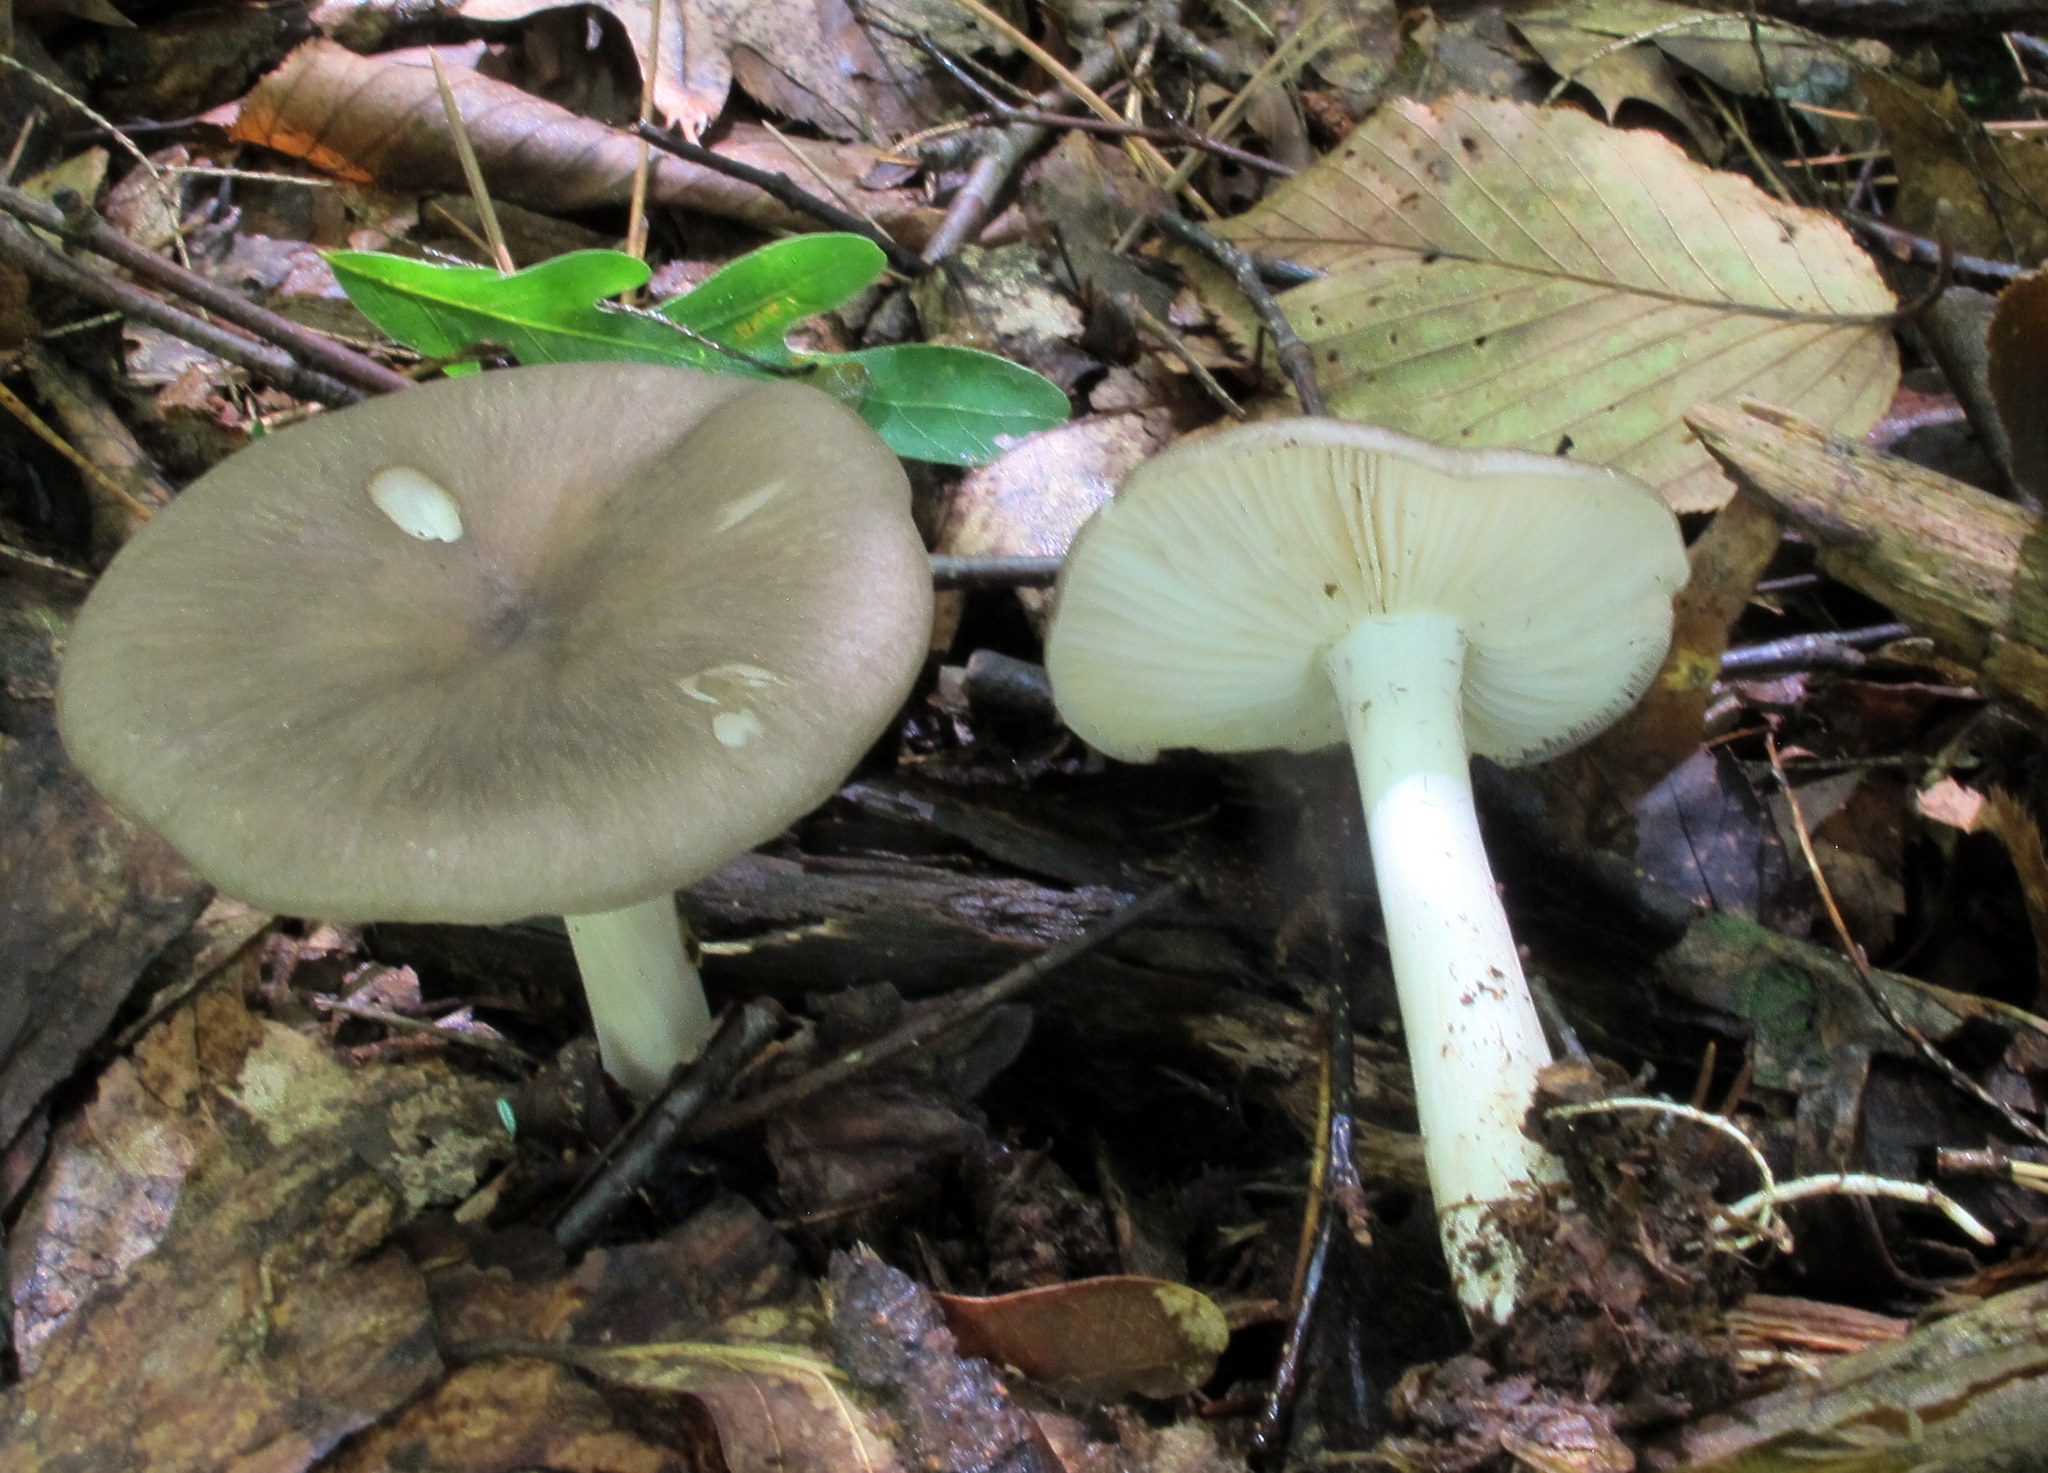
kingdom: Fungi
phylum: Basidiomycota
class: Agaricomycetes
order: Agaricales
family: Tricholomataceae
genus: Megacollybia
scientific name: Megacollybia rodmanii
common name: Eastern american platterful mushroom
